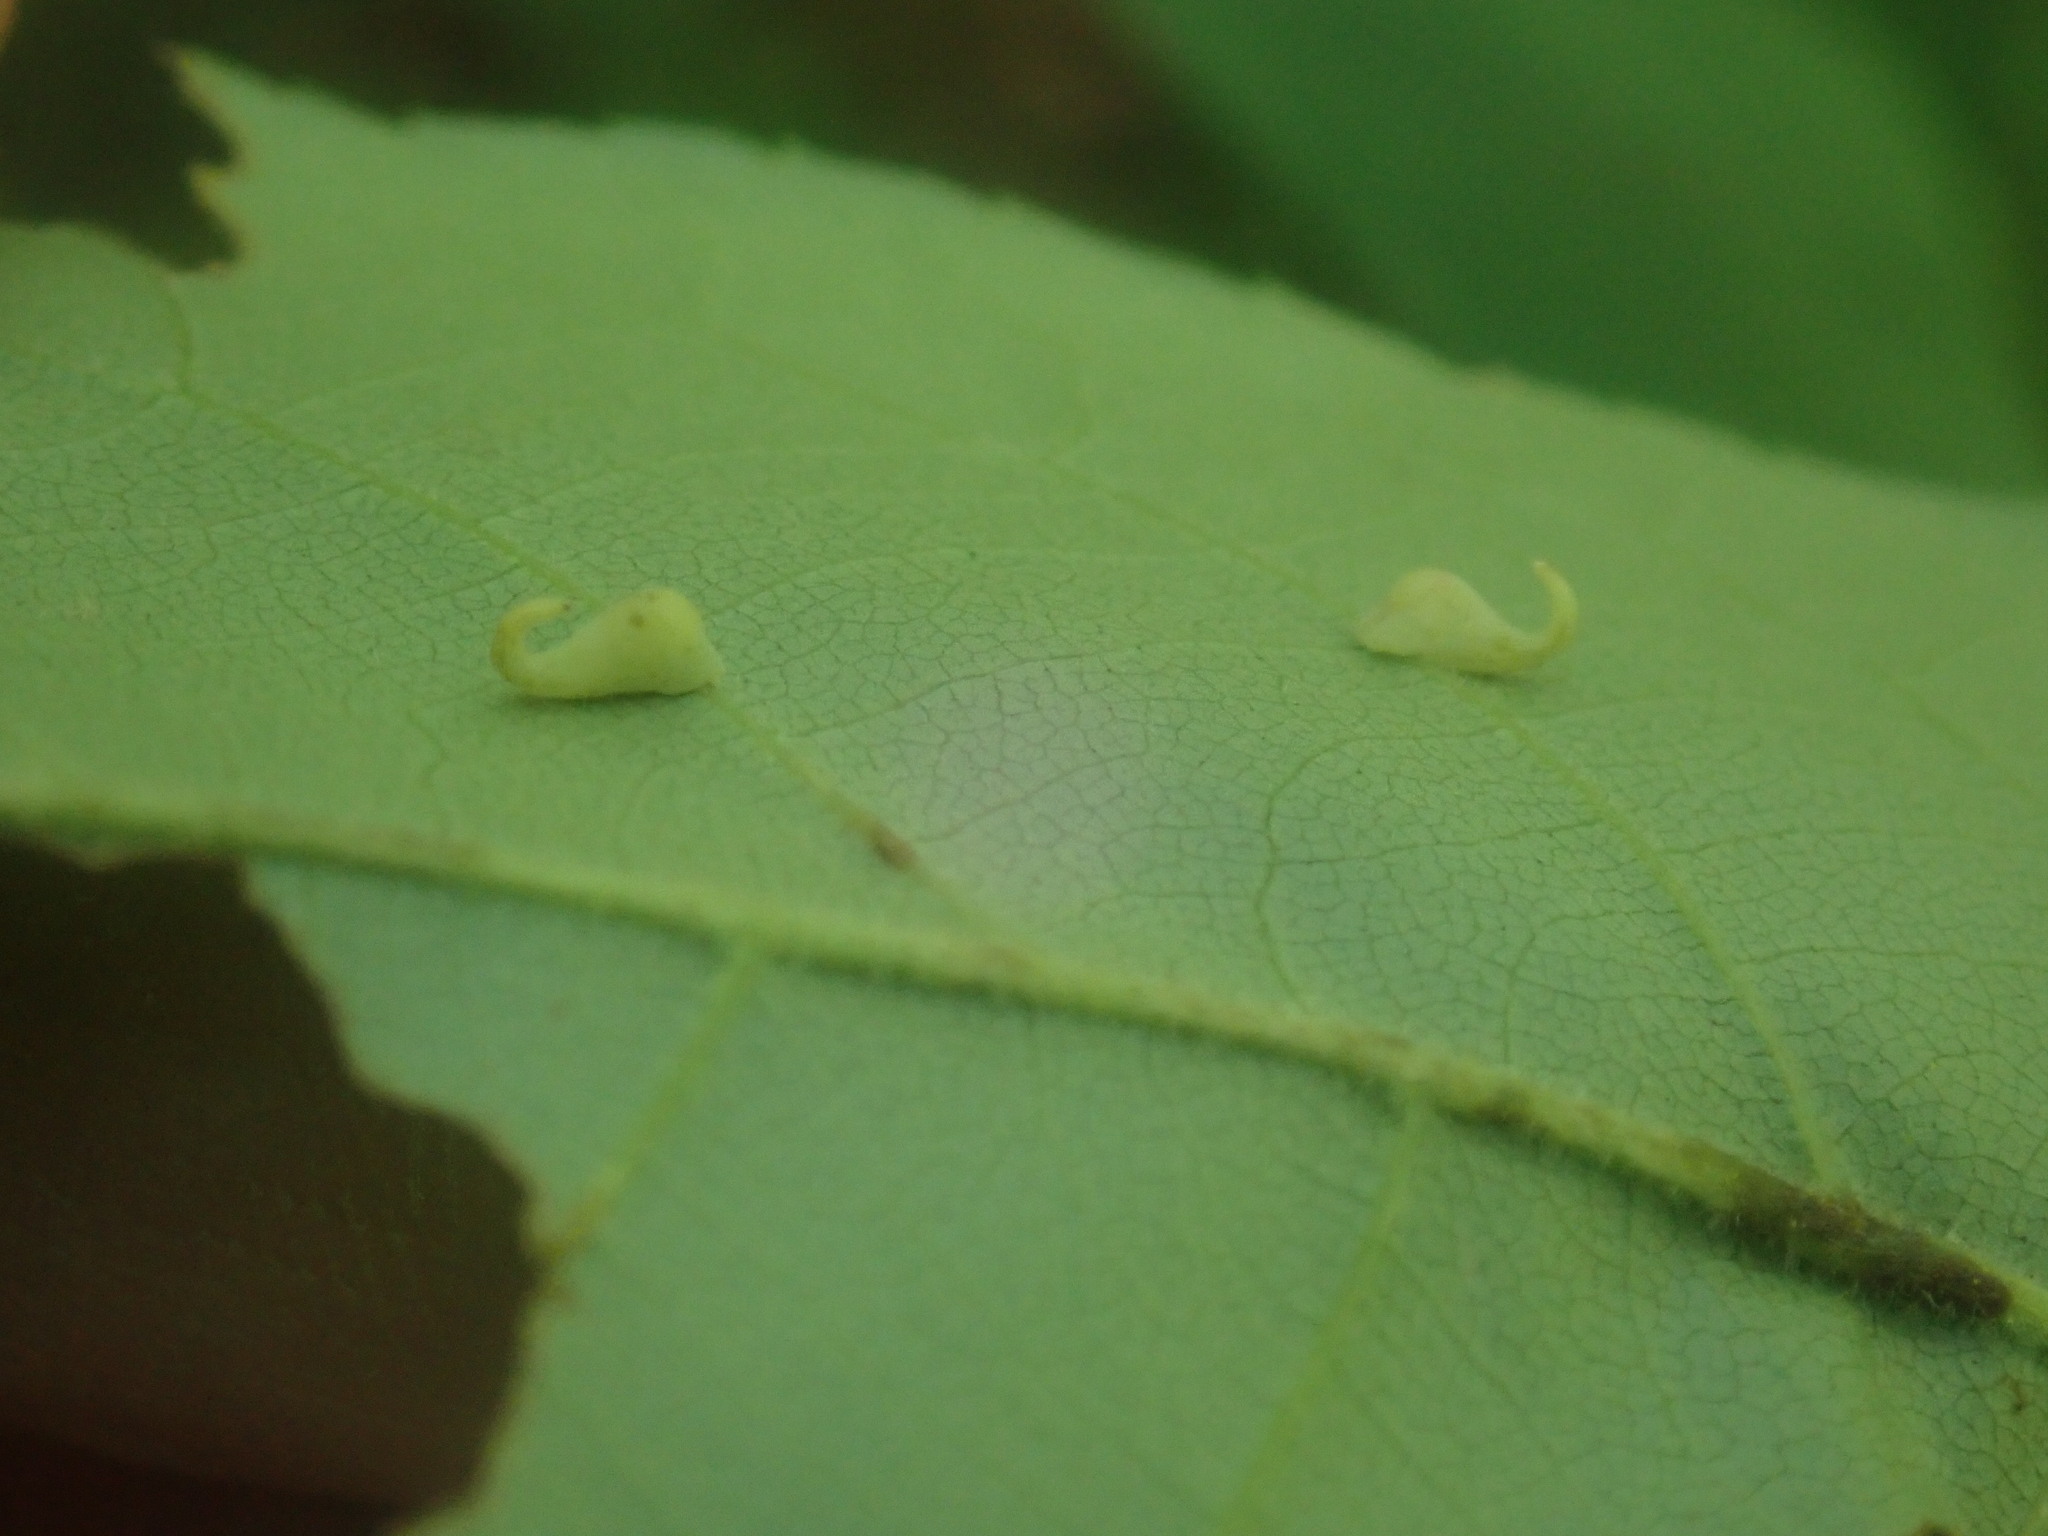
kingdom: Animalia
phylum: Arthropoda
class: Insecta
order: Diptera
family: Cecidomyiidae
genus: Caryomyia
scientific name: Caryomyia recurvata
